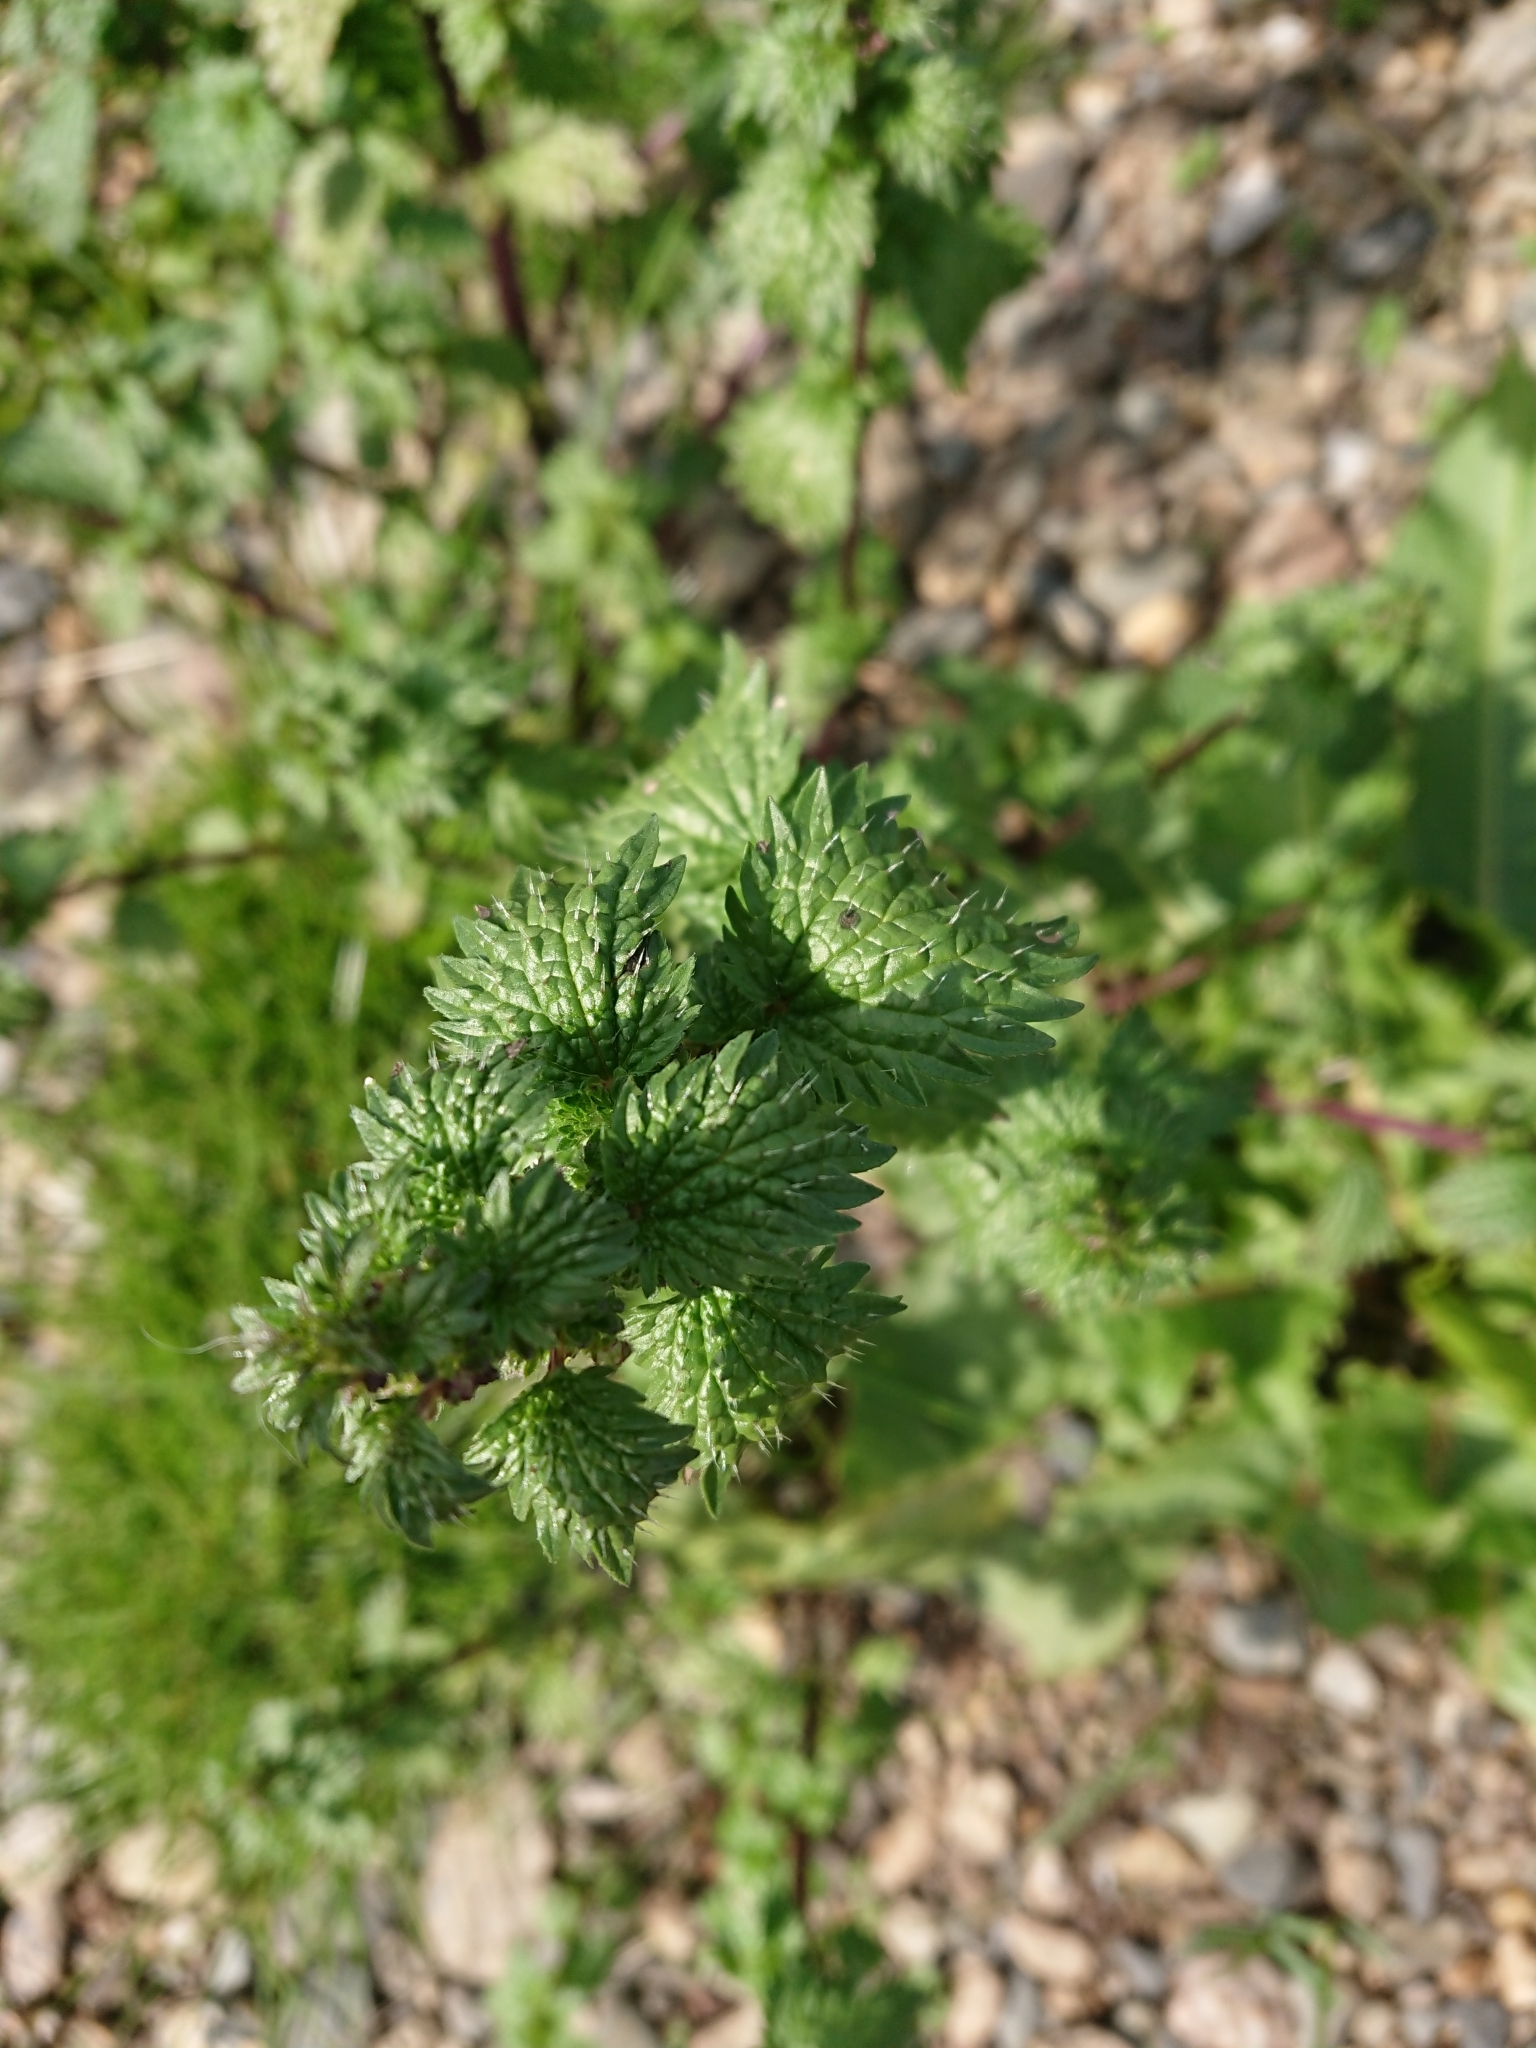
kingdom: Plantae
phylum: Tracheophyta
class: Magnoliopsida
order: Rosales
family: Urticaceae
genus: Urtica
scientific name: Urtica urens
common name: Dwarf nettle
